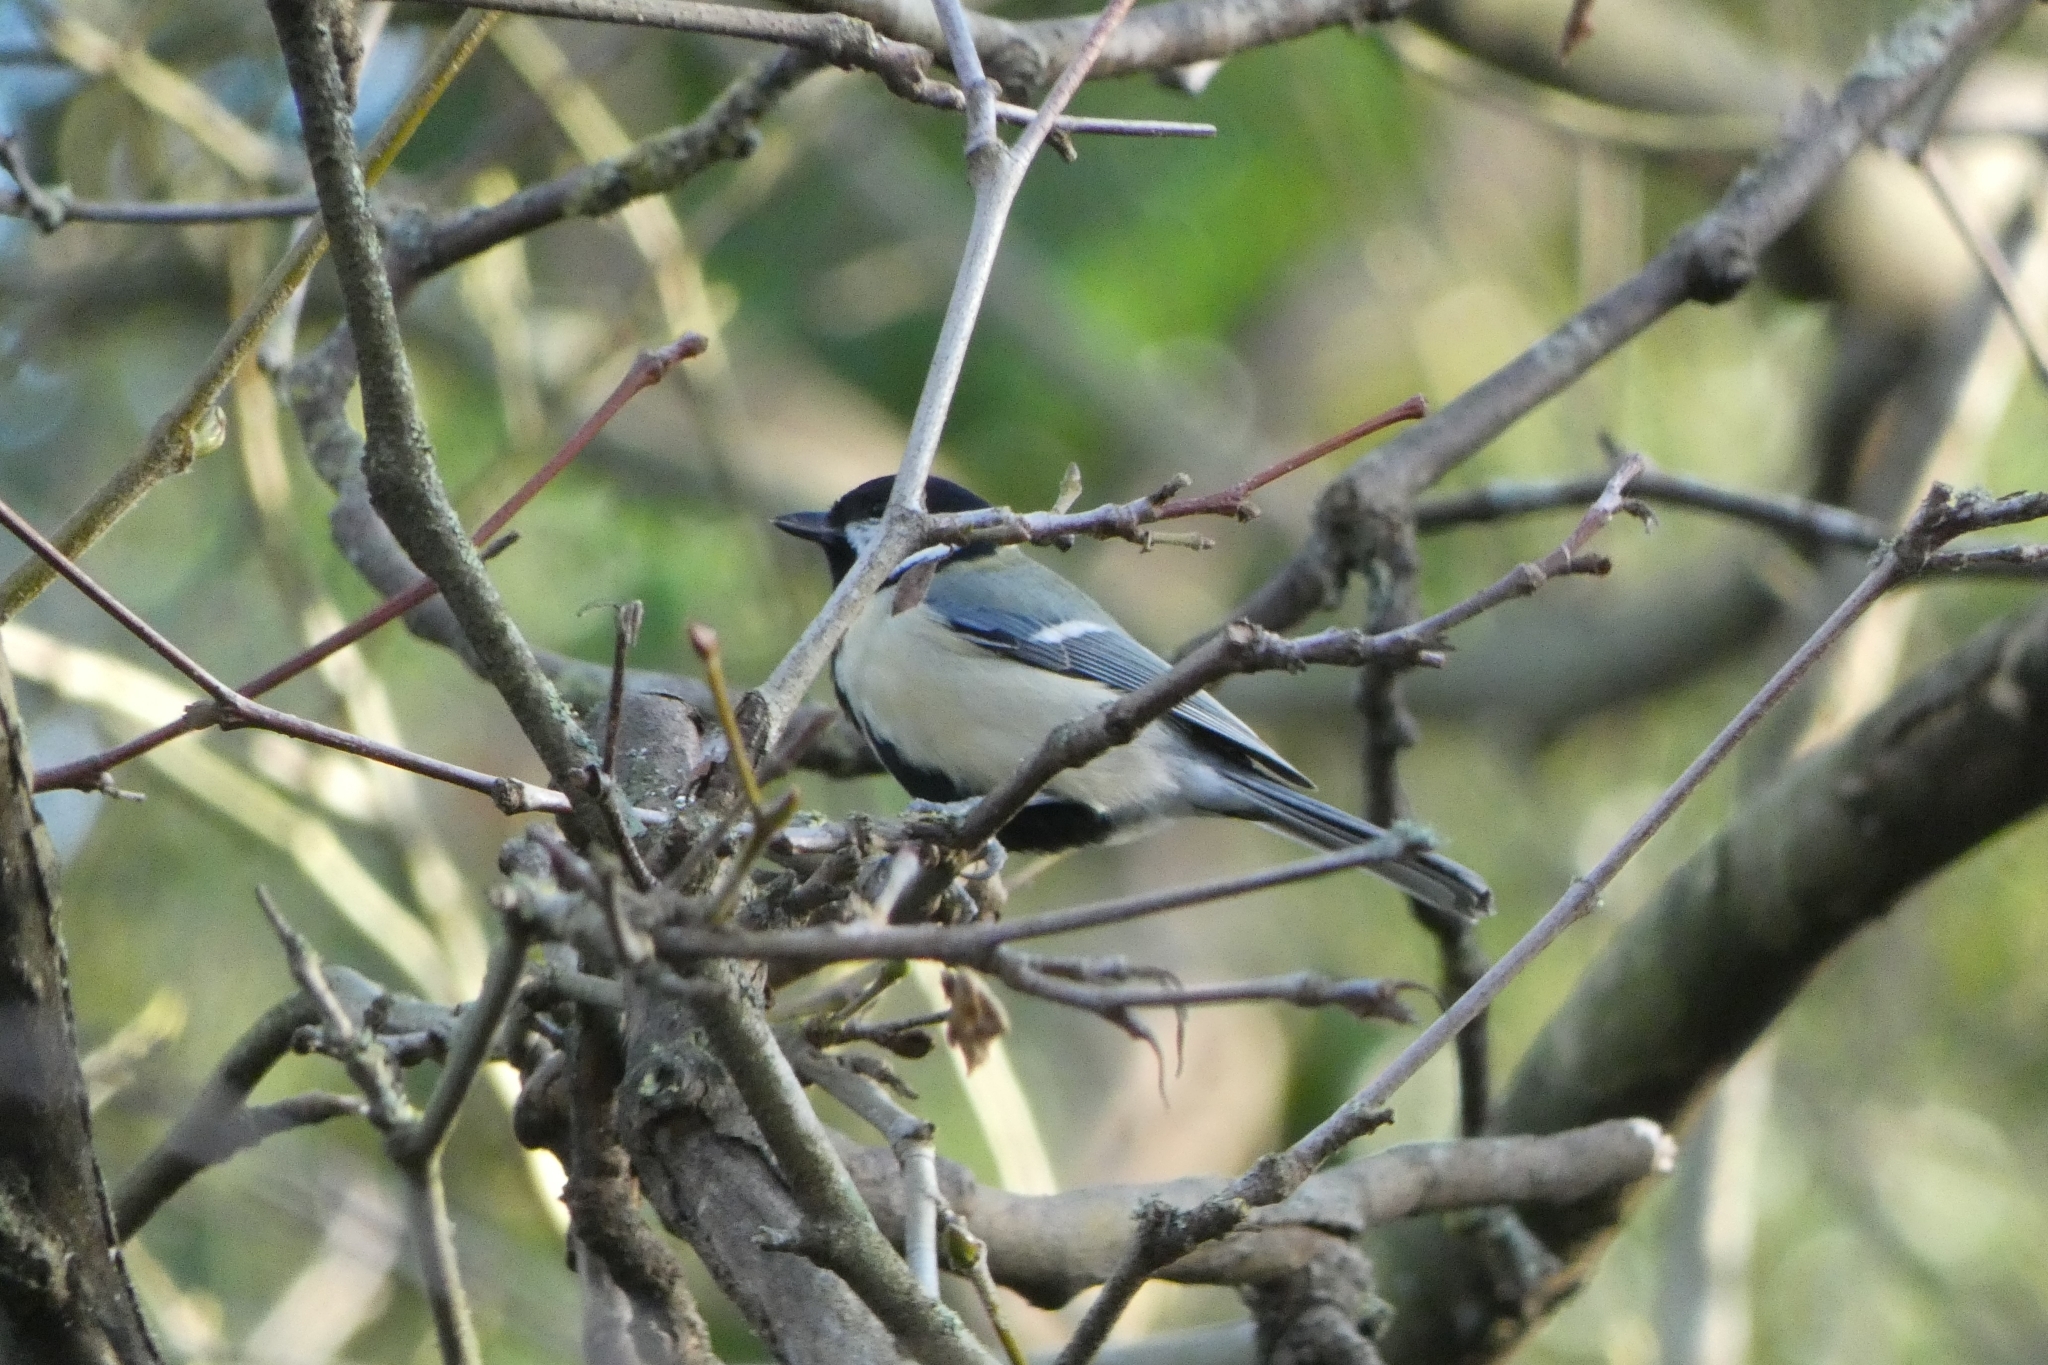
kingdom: Animalia
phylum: Chordata
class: Aves
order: Passeriformes
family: Paridae
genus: Parus
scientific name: Parus major
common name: Great tit
